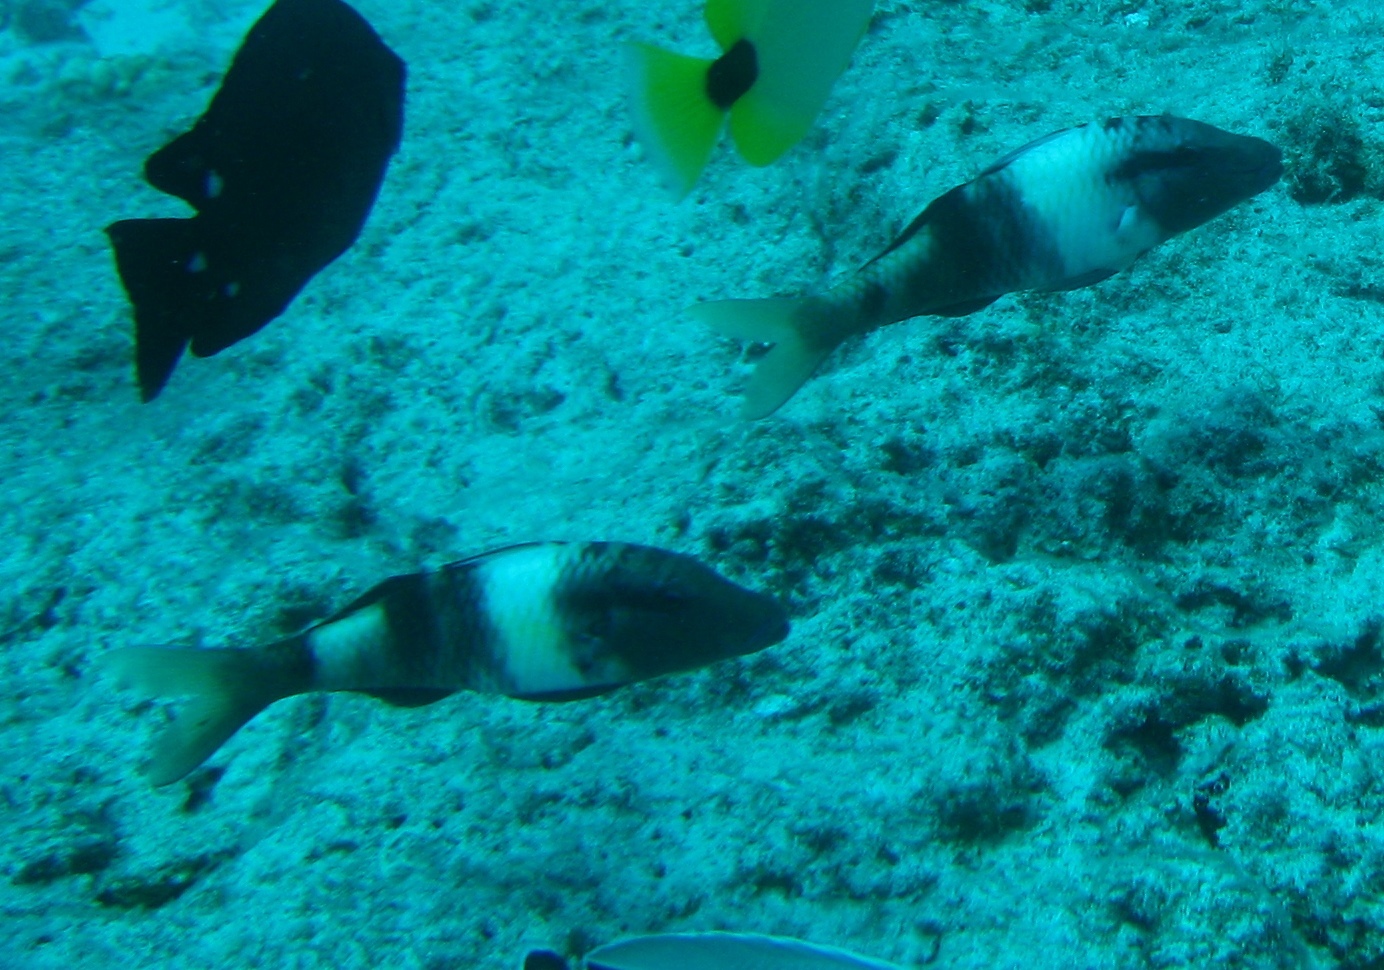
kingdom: Animalia
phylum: Chordata
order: Perciformes
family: Mullidae
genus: Parupeneus
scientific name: Parupeneus multifasciatus
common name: Manybar goatfish
